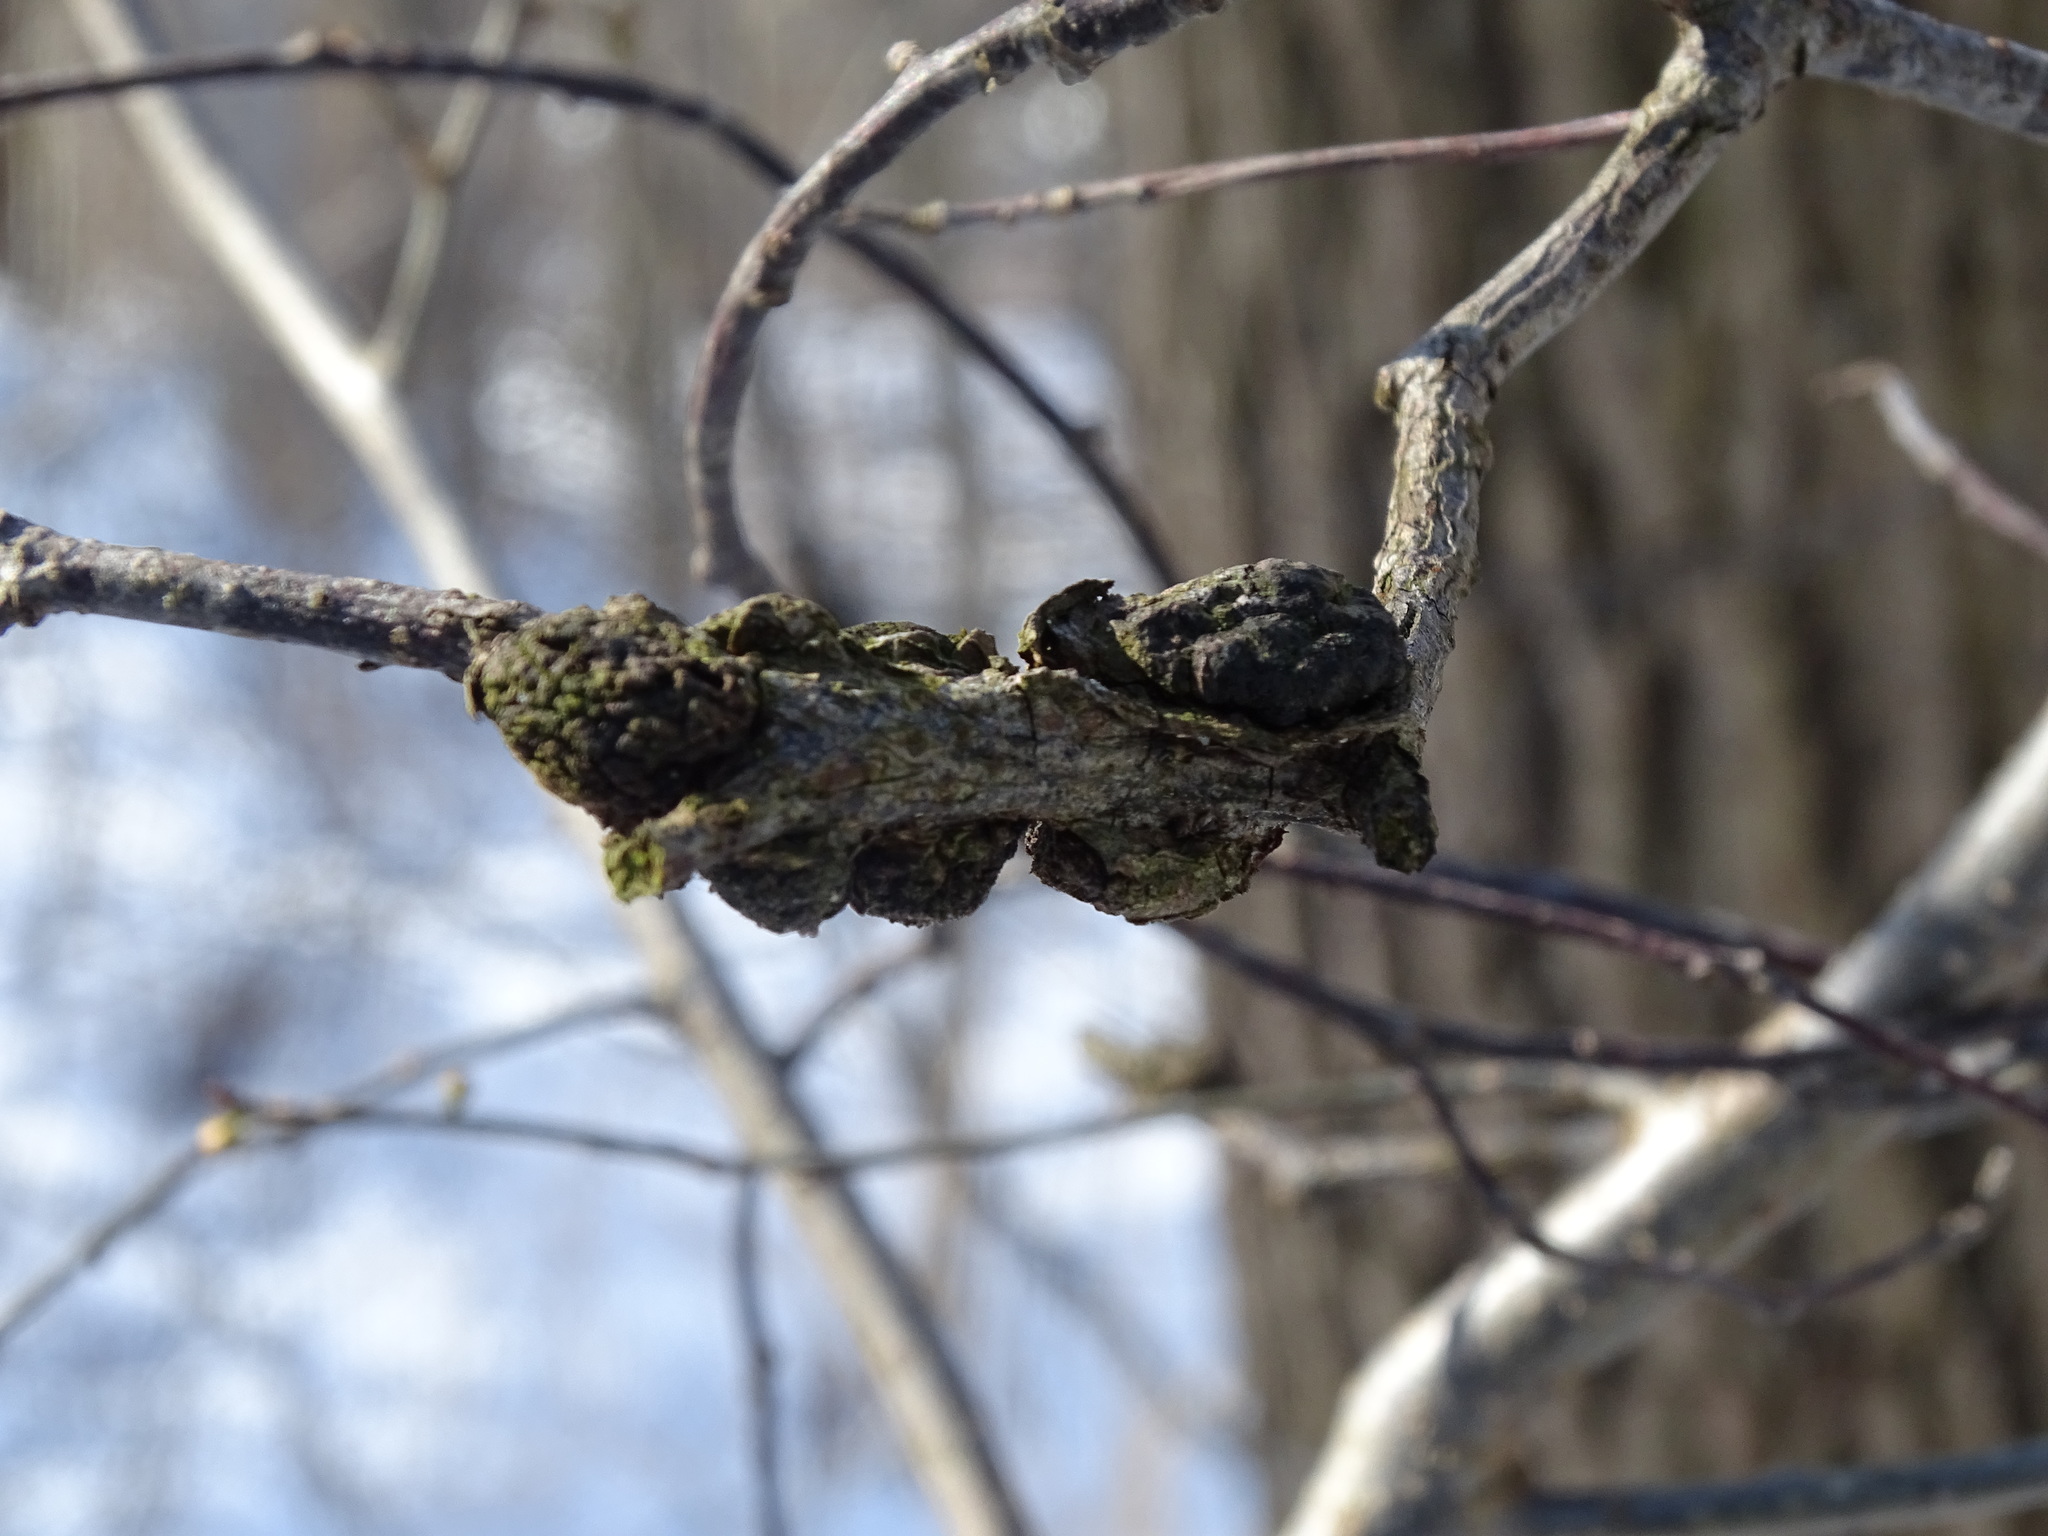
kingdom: Fungi
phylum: Ascomycota
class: Dothideomycetes
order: Venturiales
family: Venturiaceae
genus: Apiosporina
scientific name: Apiosporina morbosa
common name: Black knot
